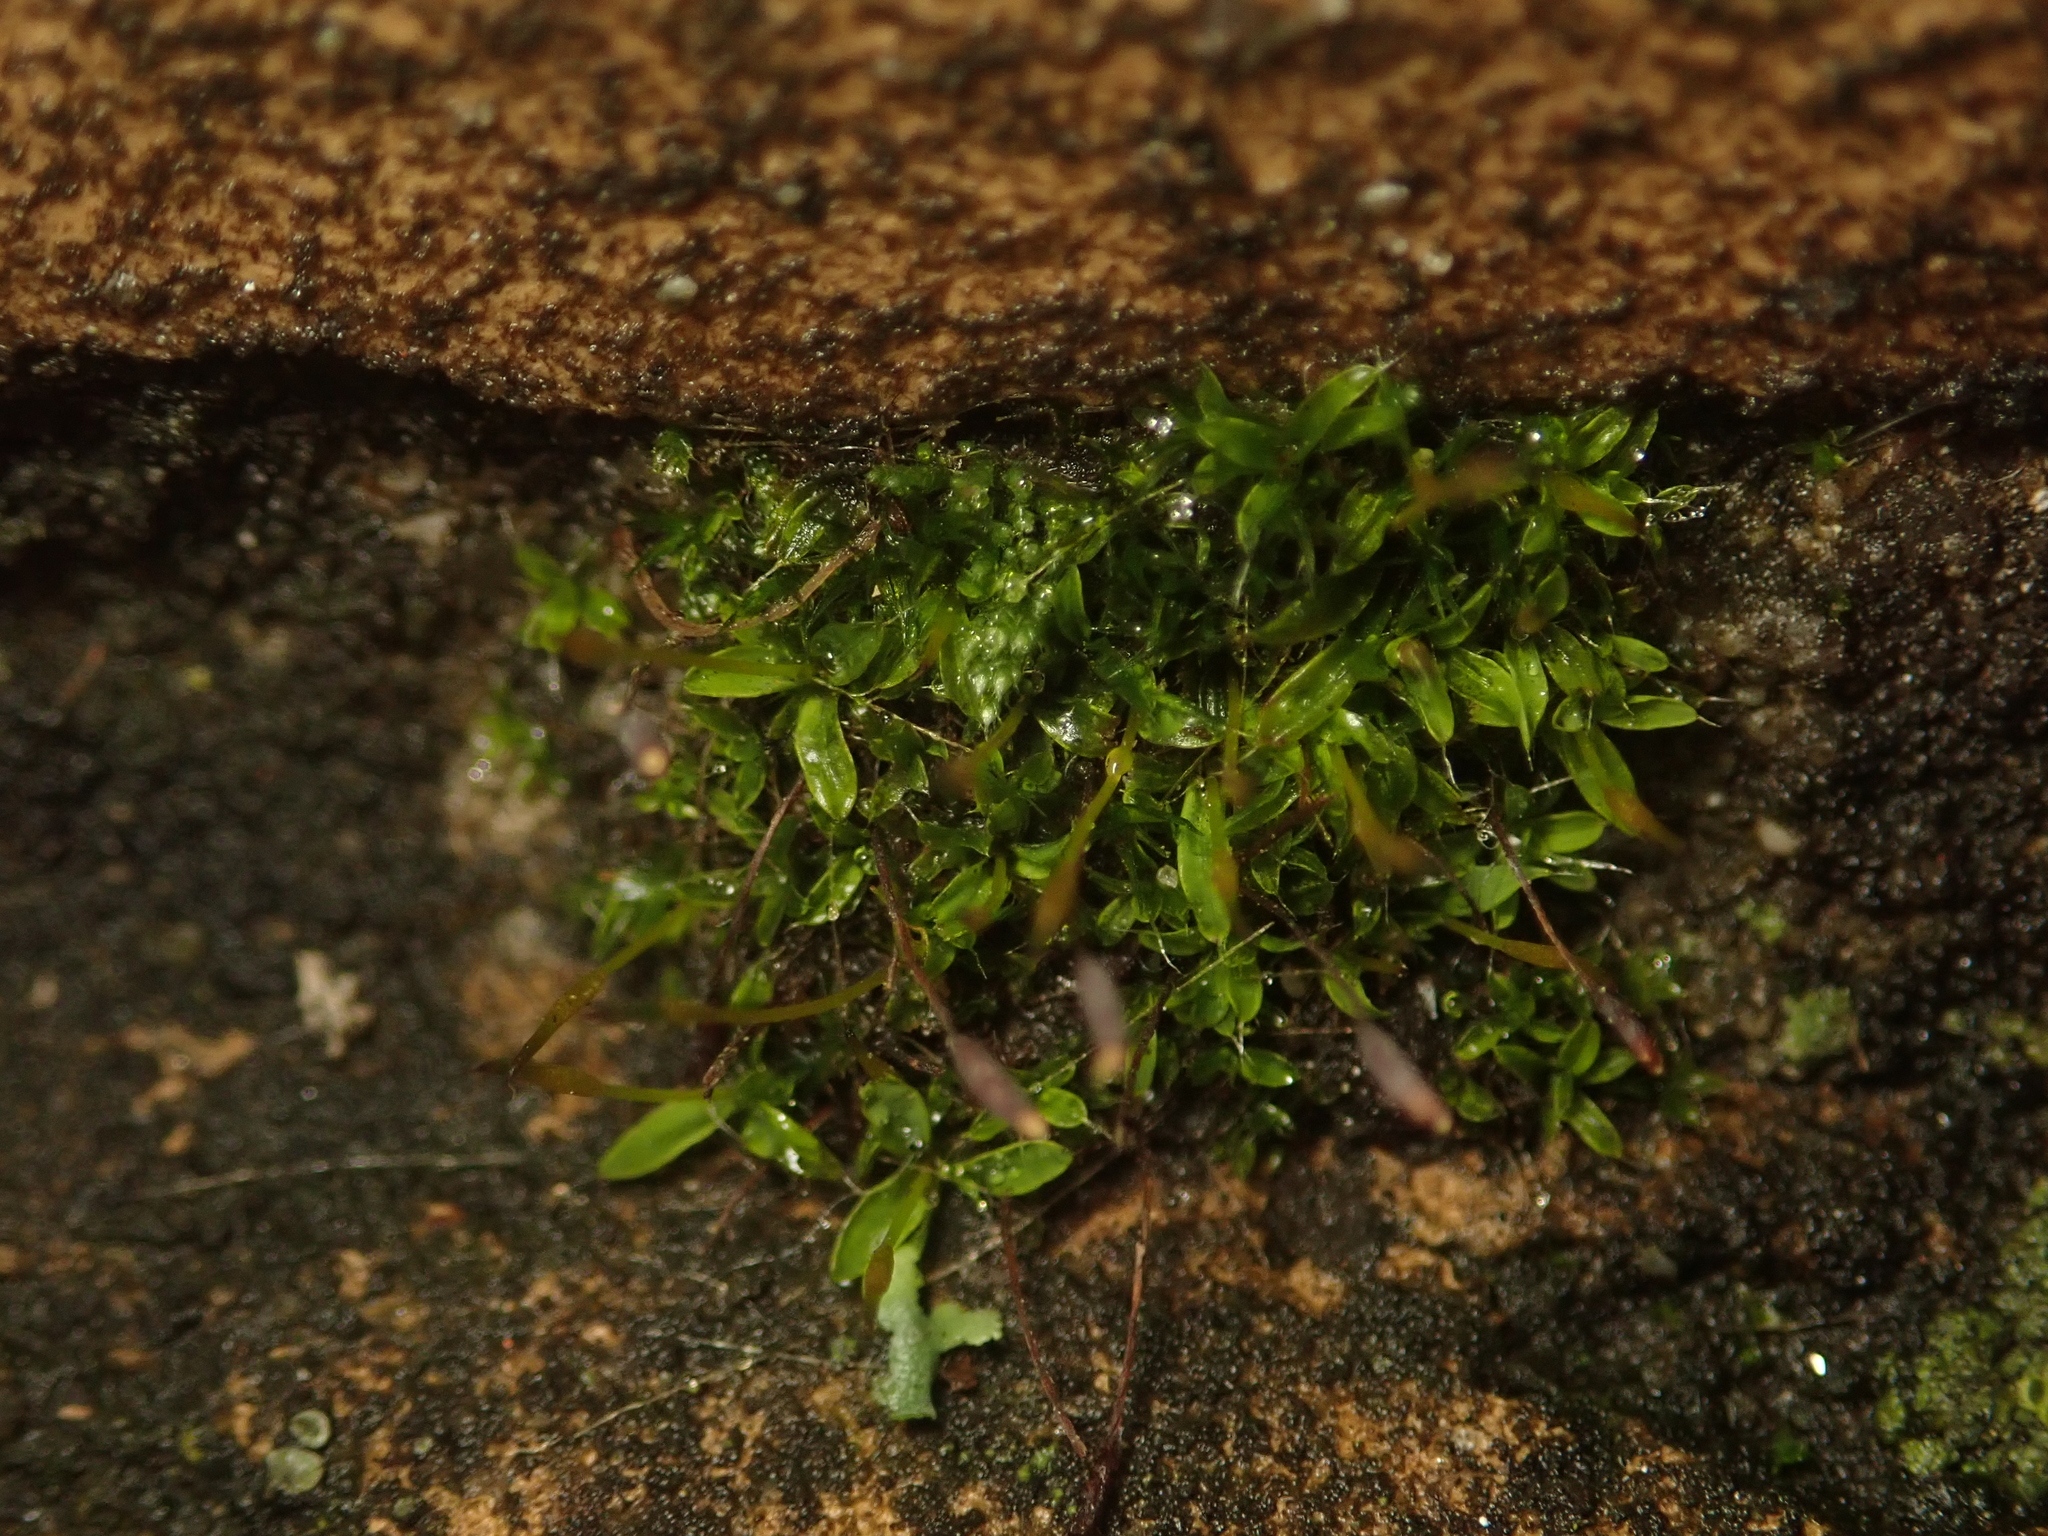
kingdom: Plantae
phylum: Bryophyta
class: Bryopsida
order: Pottiales
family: Pottiaceae
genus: Tortula
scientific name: Tortula muralis
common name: Wall screw-moss
